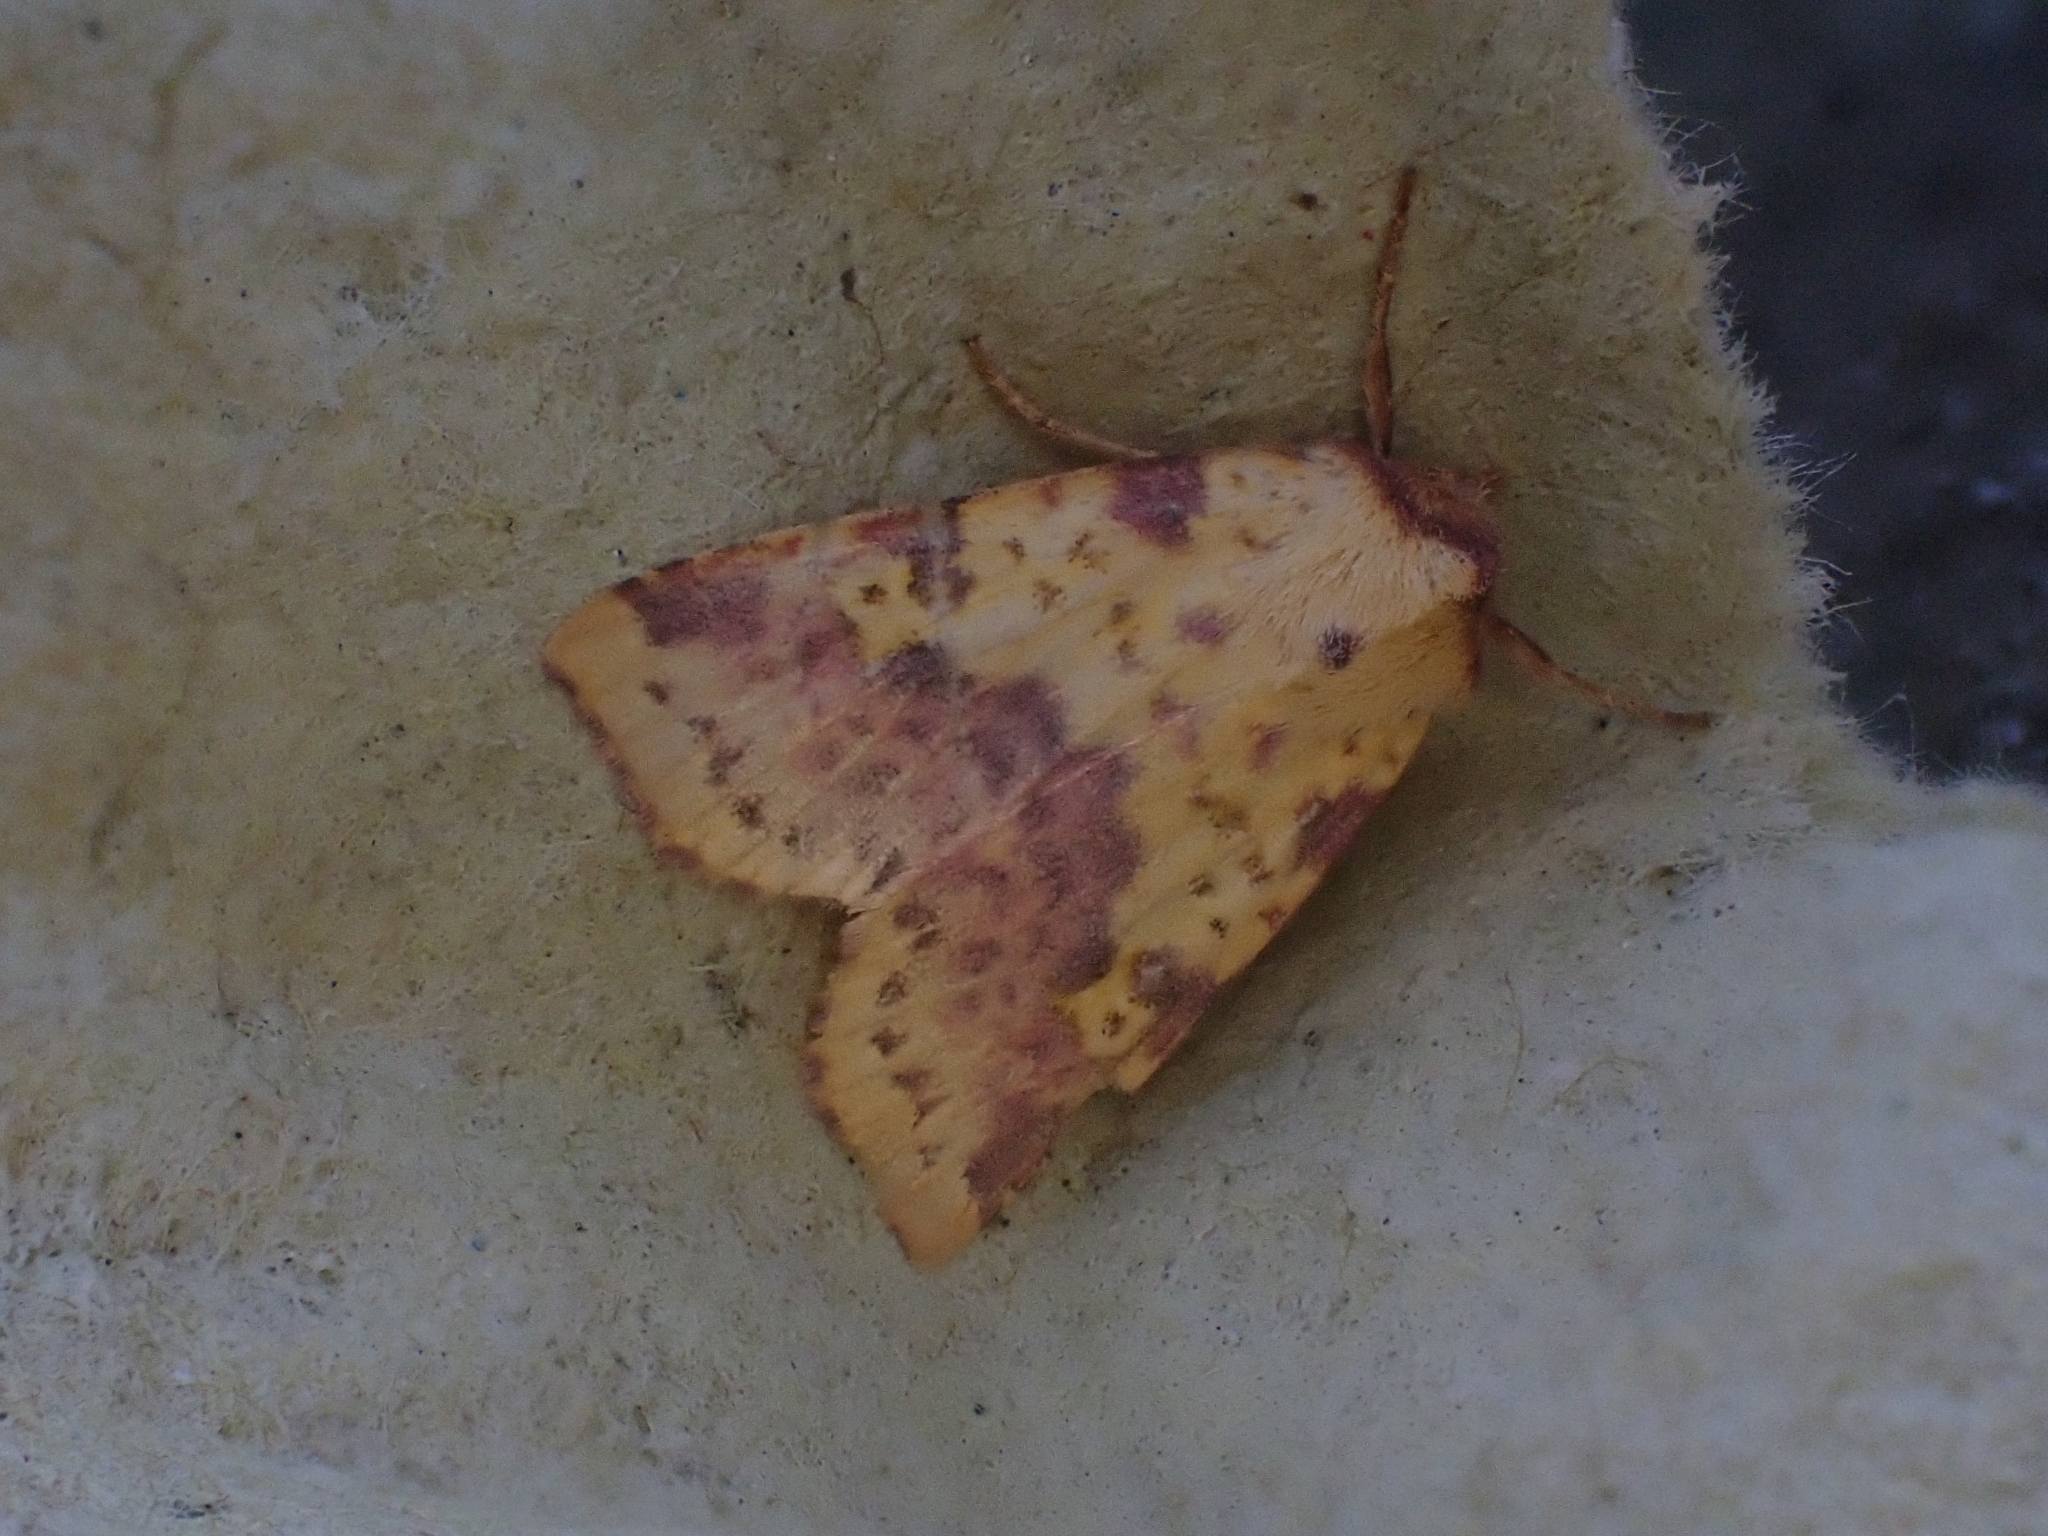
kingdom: Animalia
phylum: Arthropoda
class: Insecta
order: Lepidoptera
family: Noctuidae
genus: Xanthia
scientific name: Xanthia togata
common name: Pink-barred sallow
